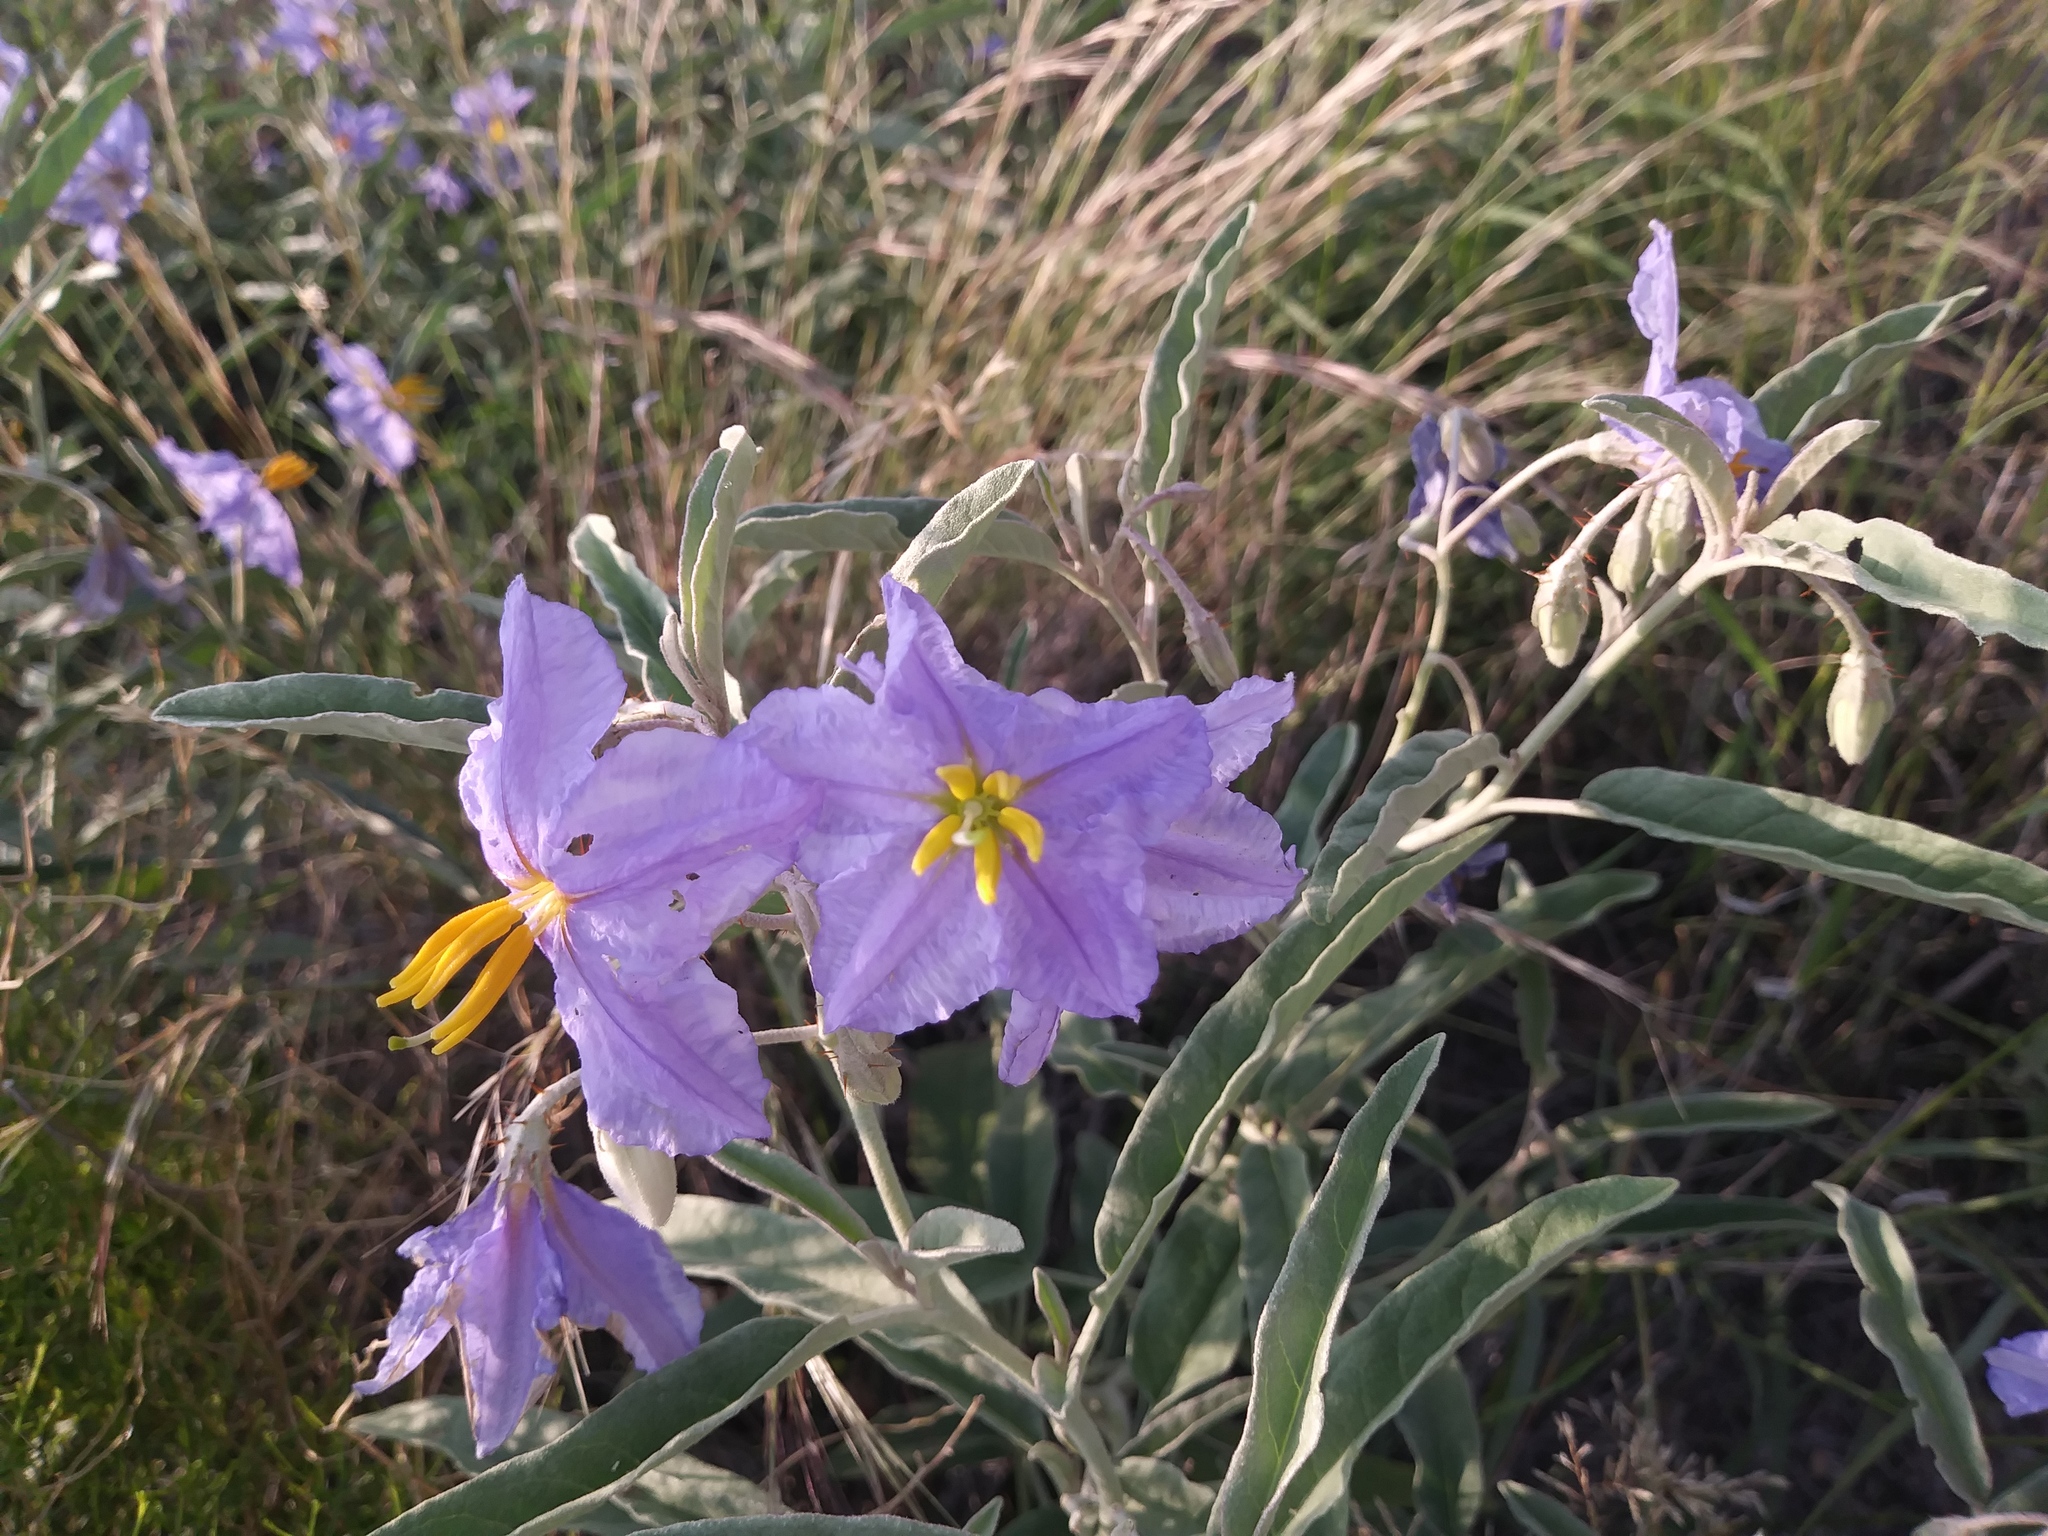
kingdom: Plantae
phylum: Tracheophyta
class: Magnoliopsida
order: Solanales
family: Solanaceae
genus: Solanum
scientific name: Solanum elaeagnifolium
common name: Silverleaf nightshade
